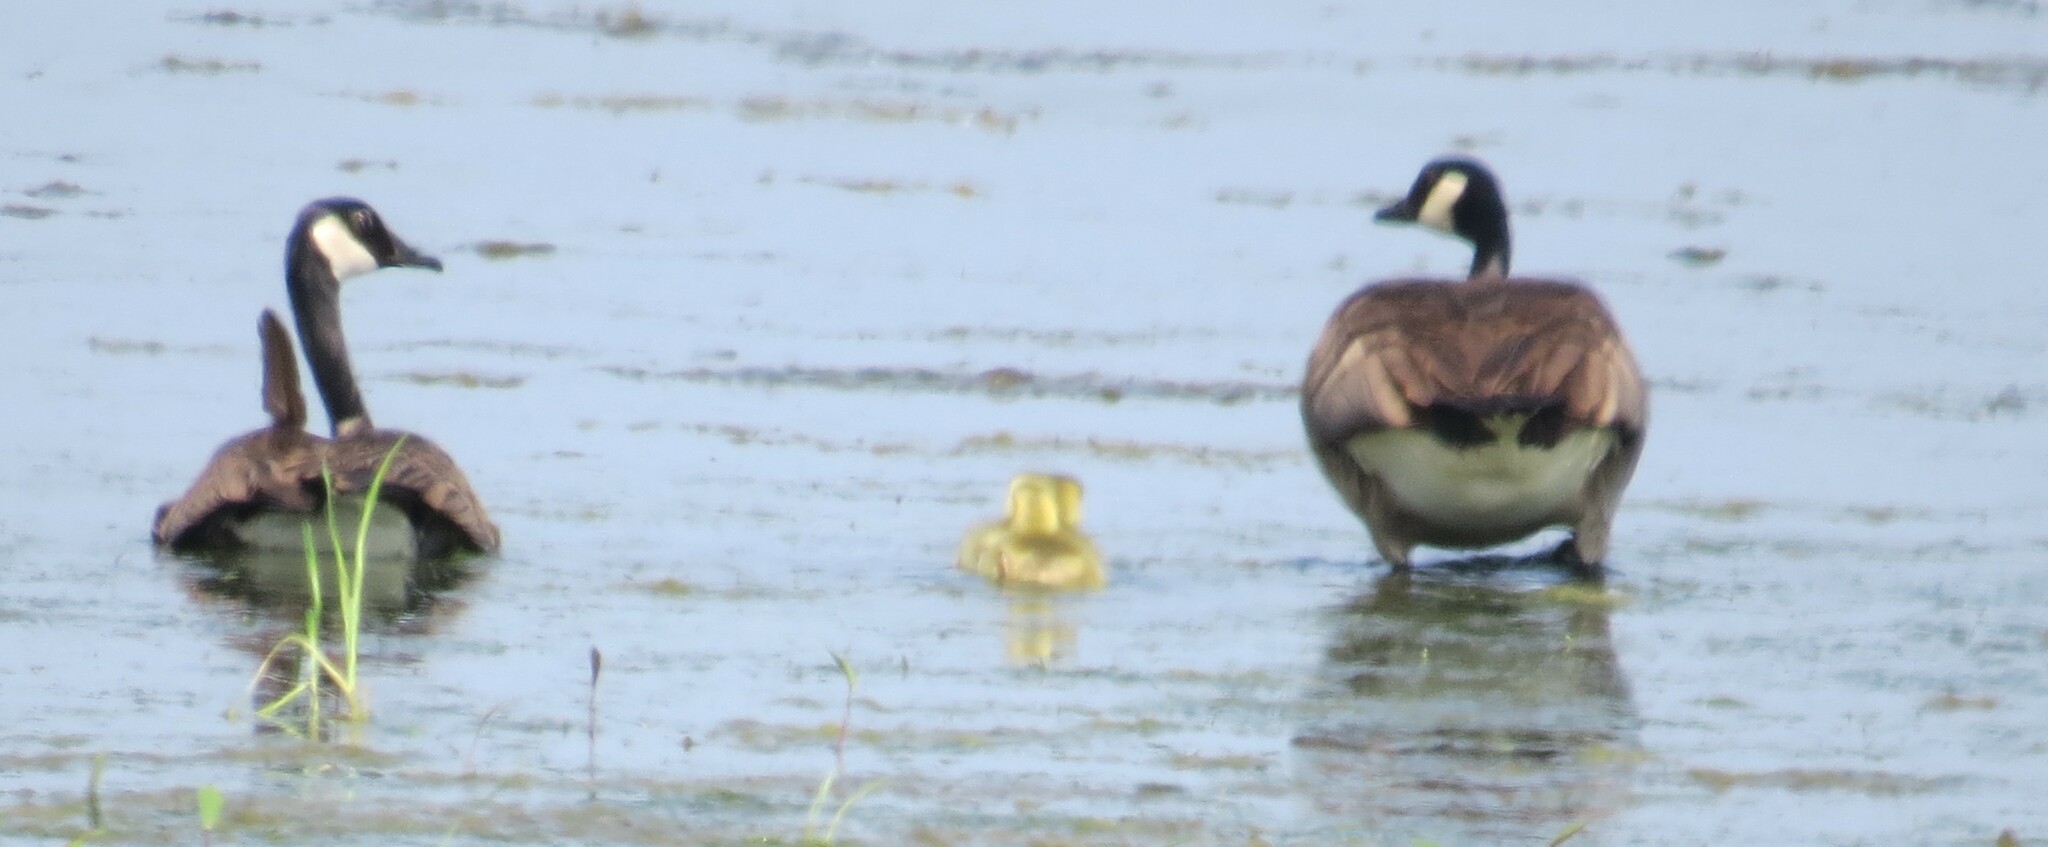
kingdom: Animalia
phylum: Chordata
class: Aves
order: Anseriformes
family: Anatidae
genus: Branta
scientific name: Branta canadensis
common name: Canada goose
